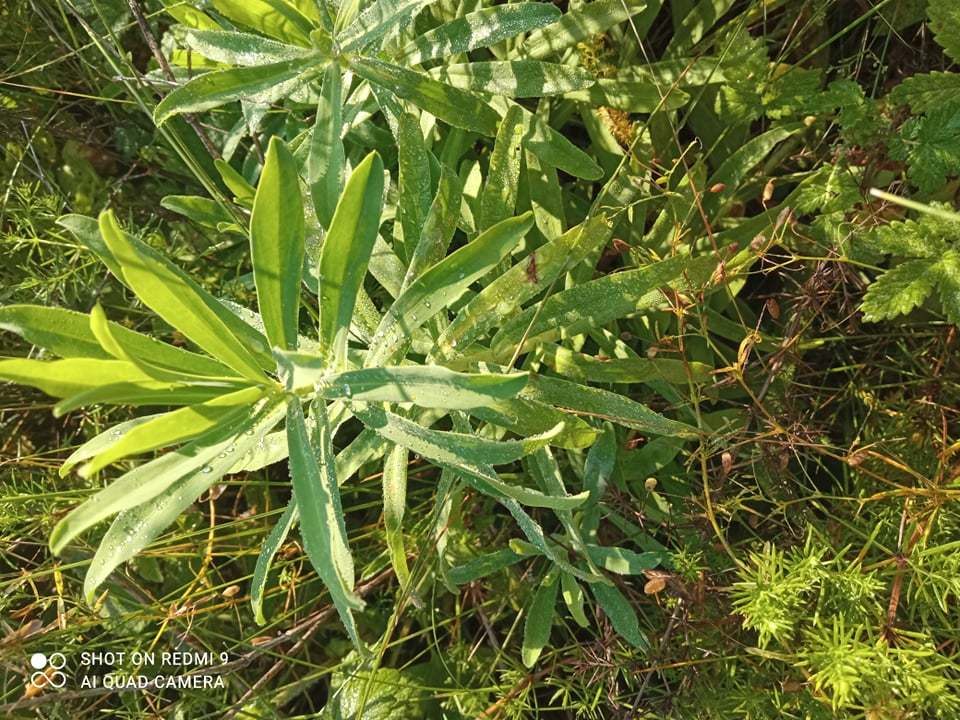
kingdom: Plantae
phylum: Tracheophyta
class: Magnoliopsida
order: Malpighiales
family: Euphorbiaceae
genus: Euphorbia
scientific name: Euphorbia stepposa
